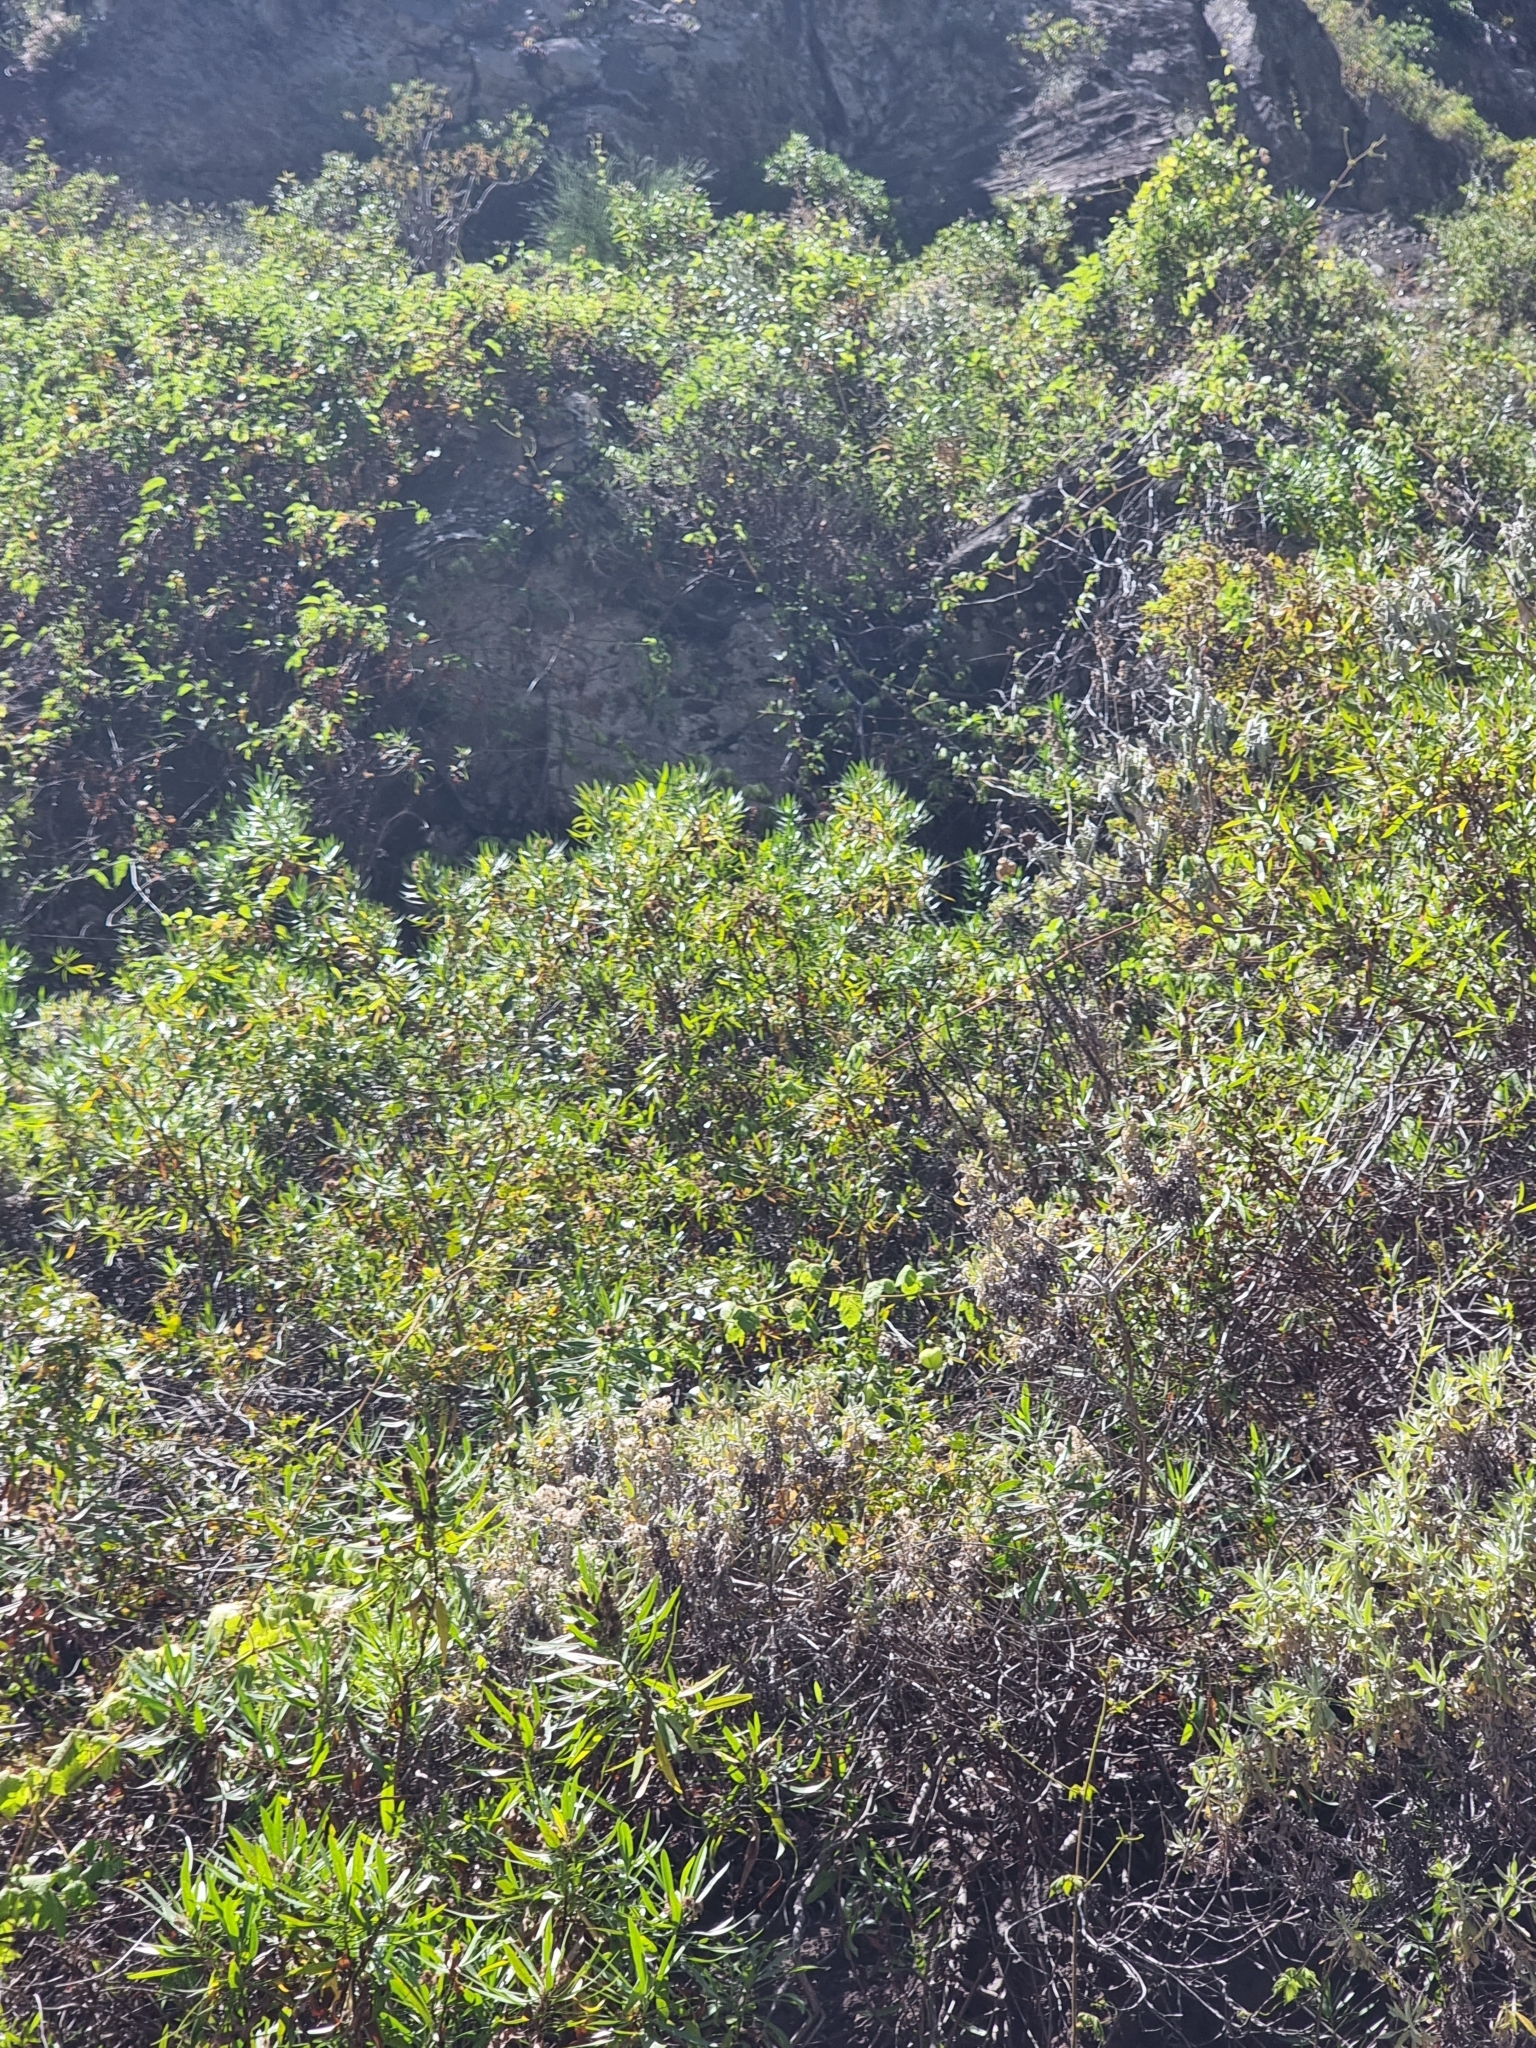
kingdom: Plantae
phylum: Tracheophyta
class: Magnoliopsida
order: Lamiales
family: Plantaginaceae
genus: Globularia
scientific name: Globularia salicina
